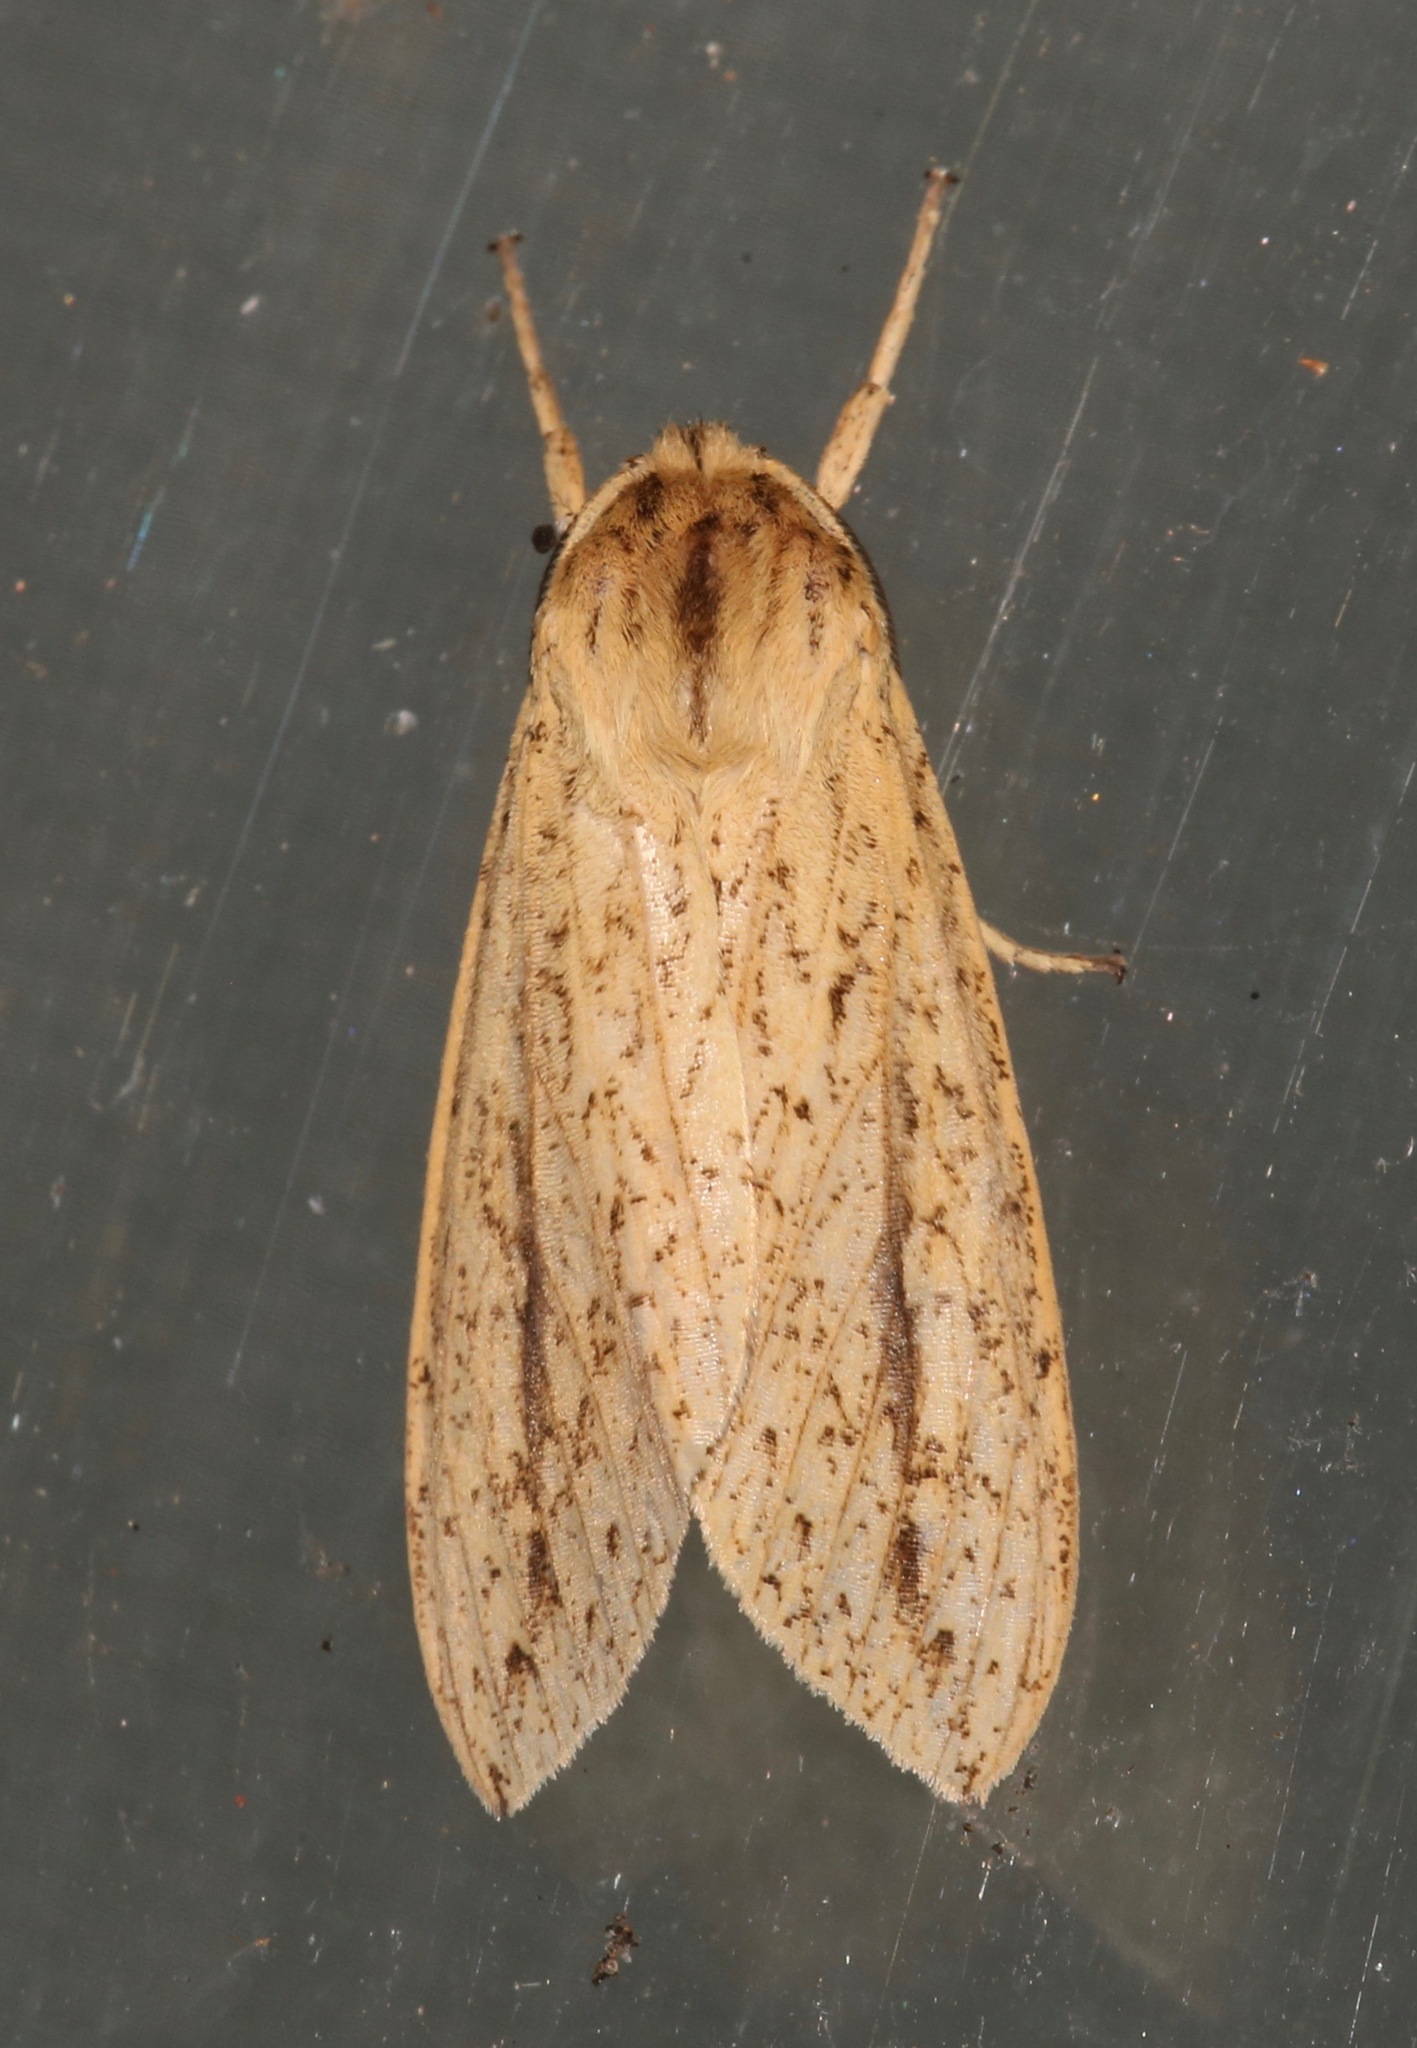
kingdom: Animalia
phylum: Arthropoda
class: Insecta
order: Lepidoptera
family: Erebidae
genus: Leucanopsis
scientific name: Leucanopsis longa
